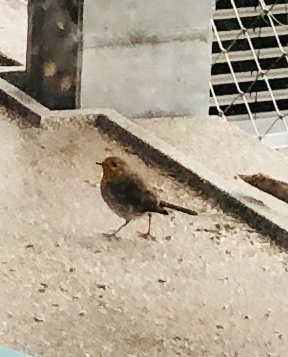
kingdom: Animalia
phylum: Chordata
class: Aves
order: Passeriformes
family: Muscicapidae
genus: Erithacus
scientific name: Erithacus rubecula
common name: European robin
